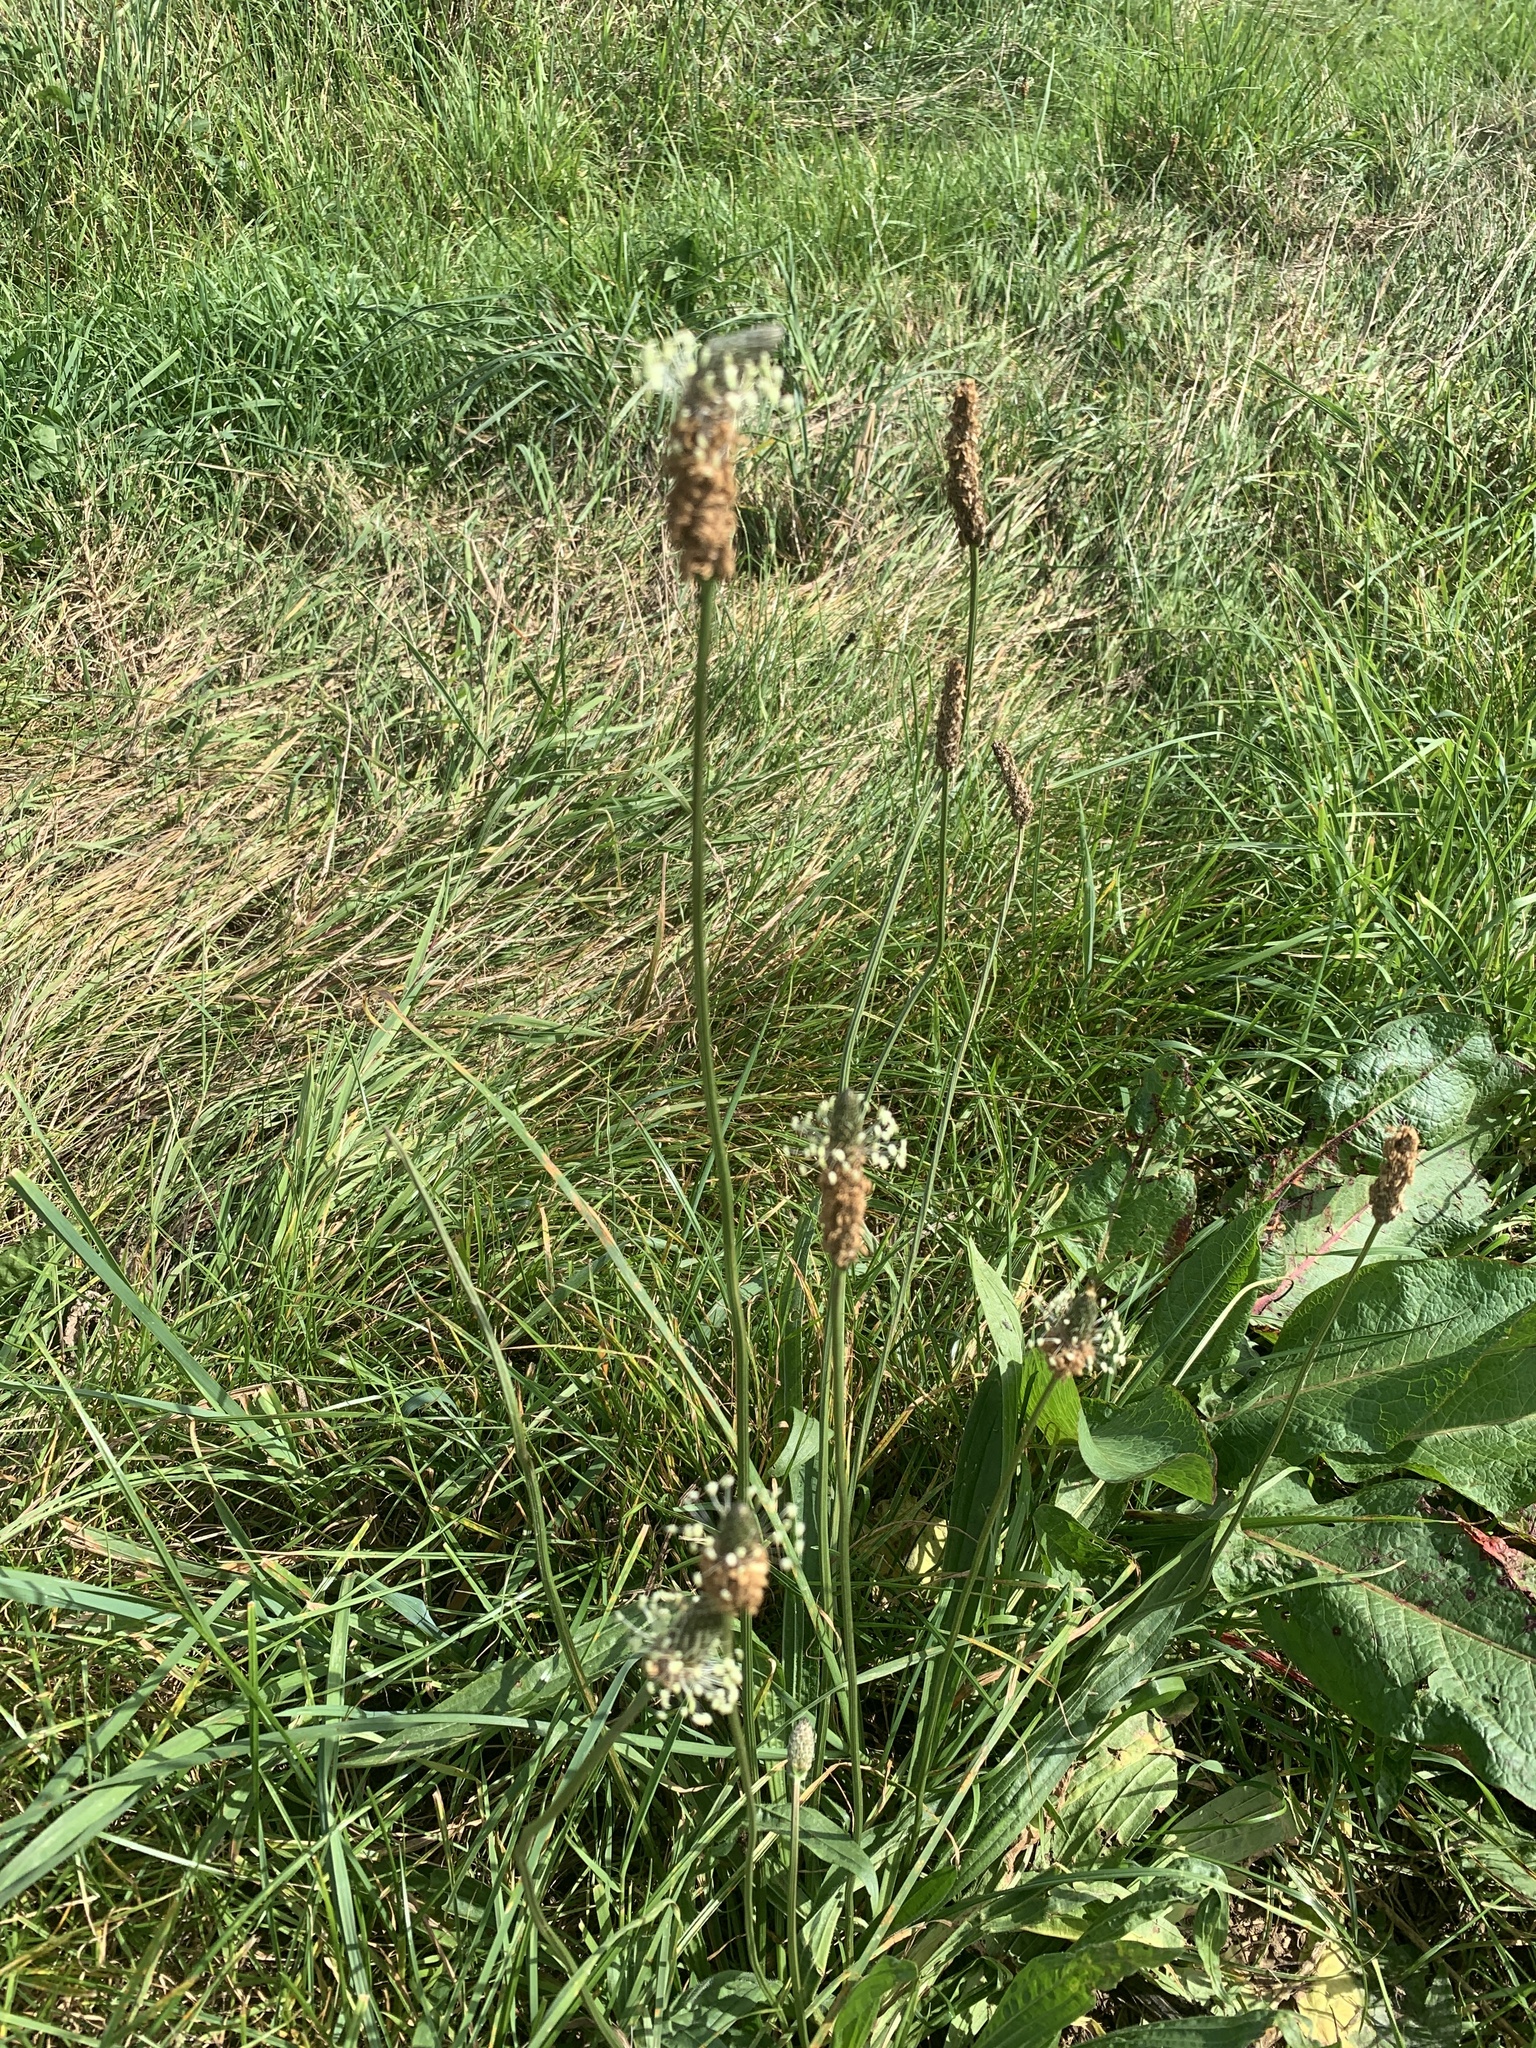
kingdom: Plantae
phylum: Tracheophyta
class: Magnoliopsida
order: Lamiales
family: Plantaginaceae
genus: Plantago
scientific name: Plantago lanceolata
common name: Ribwort plantain
